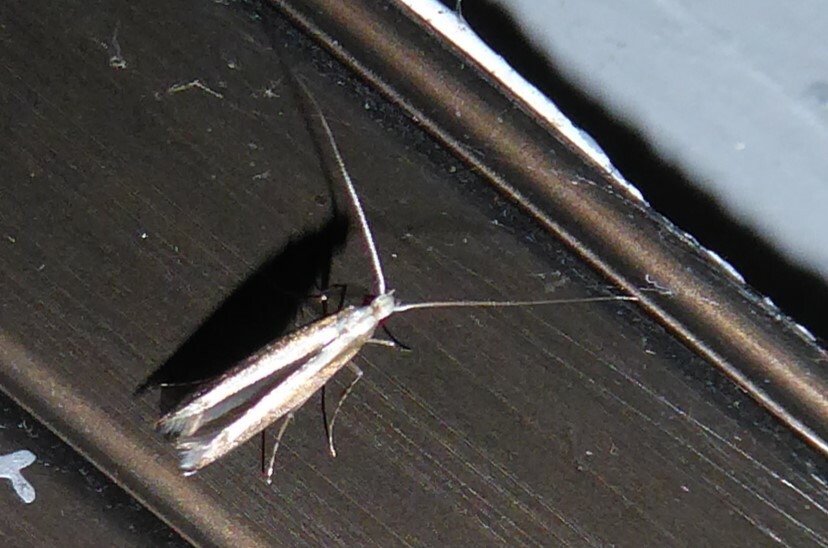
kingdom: Animalia
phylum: Arthropoda
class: Insecta
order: Lepidoptera
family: Gracillariidae
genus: Acrocercops
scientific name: Acrocercops laciniella
